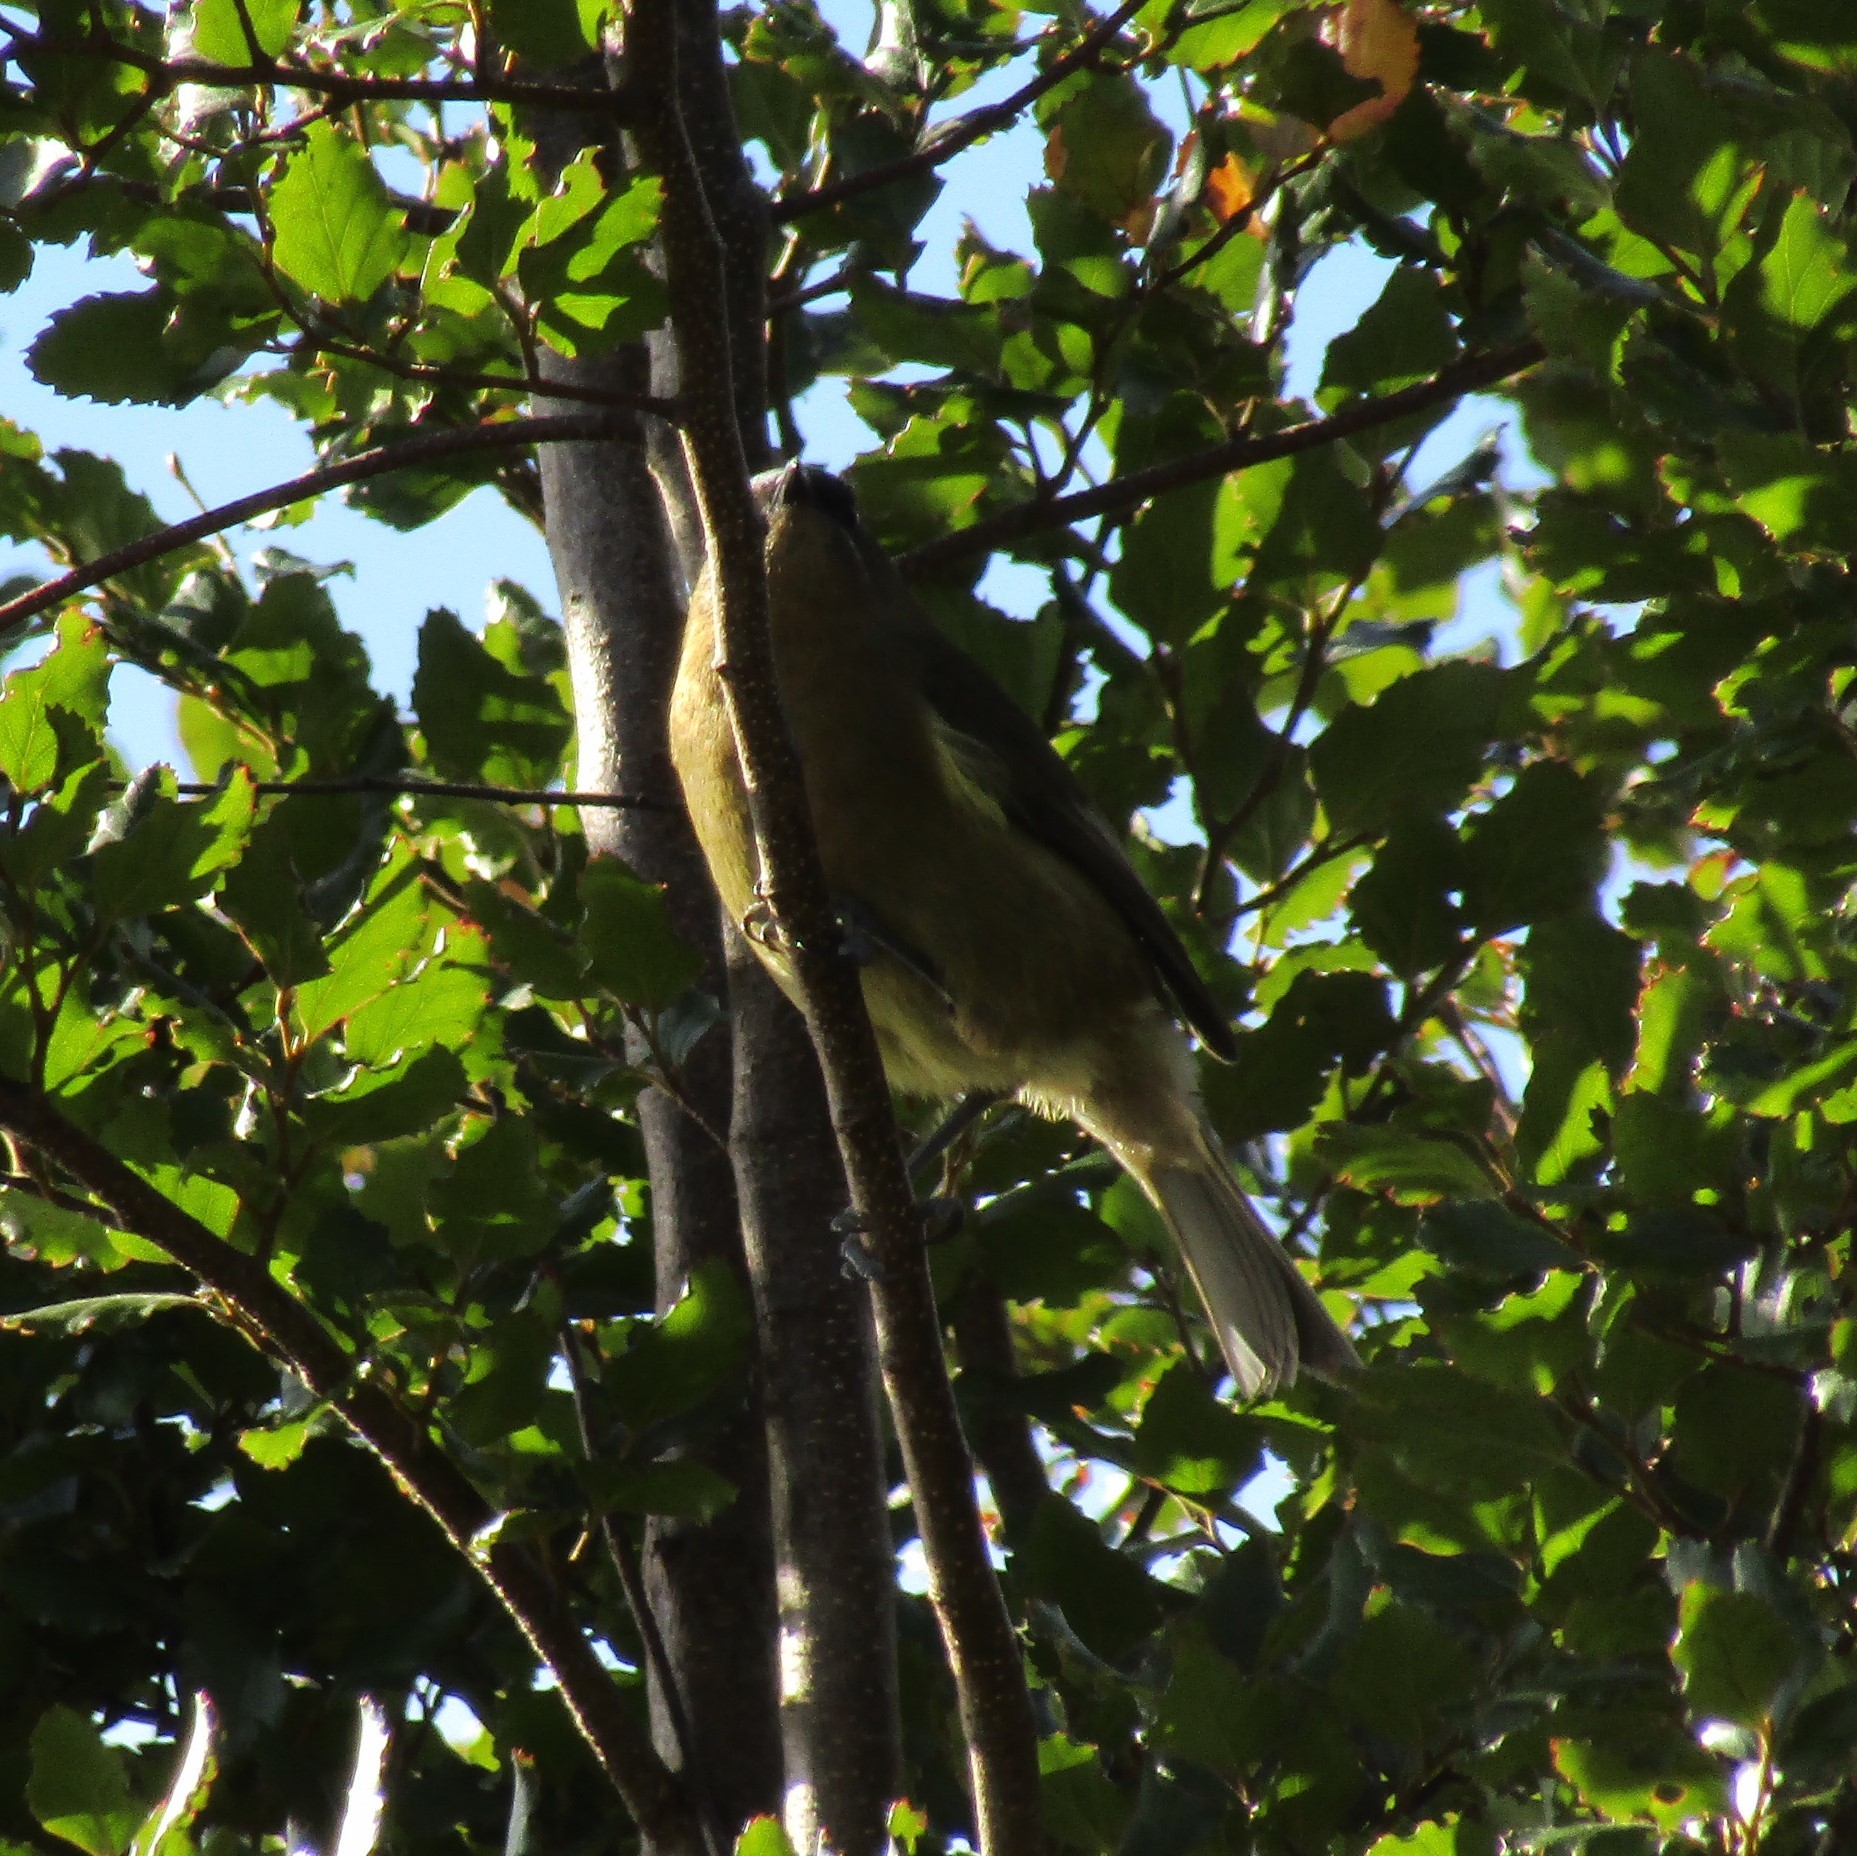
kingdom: Animalia
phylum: Chordata
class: Aves
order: Passeriformes
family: Meliphagidae
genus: Anthornis
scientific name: Anthornis melanura
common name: New zealand bellbird
